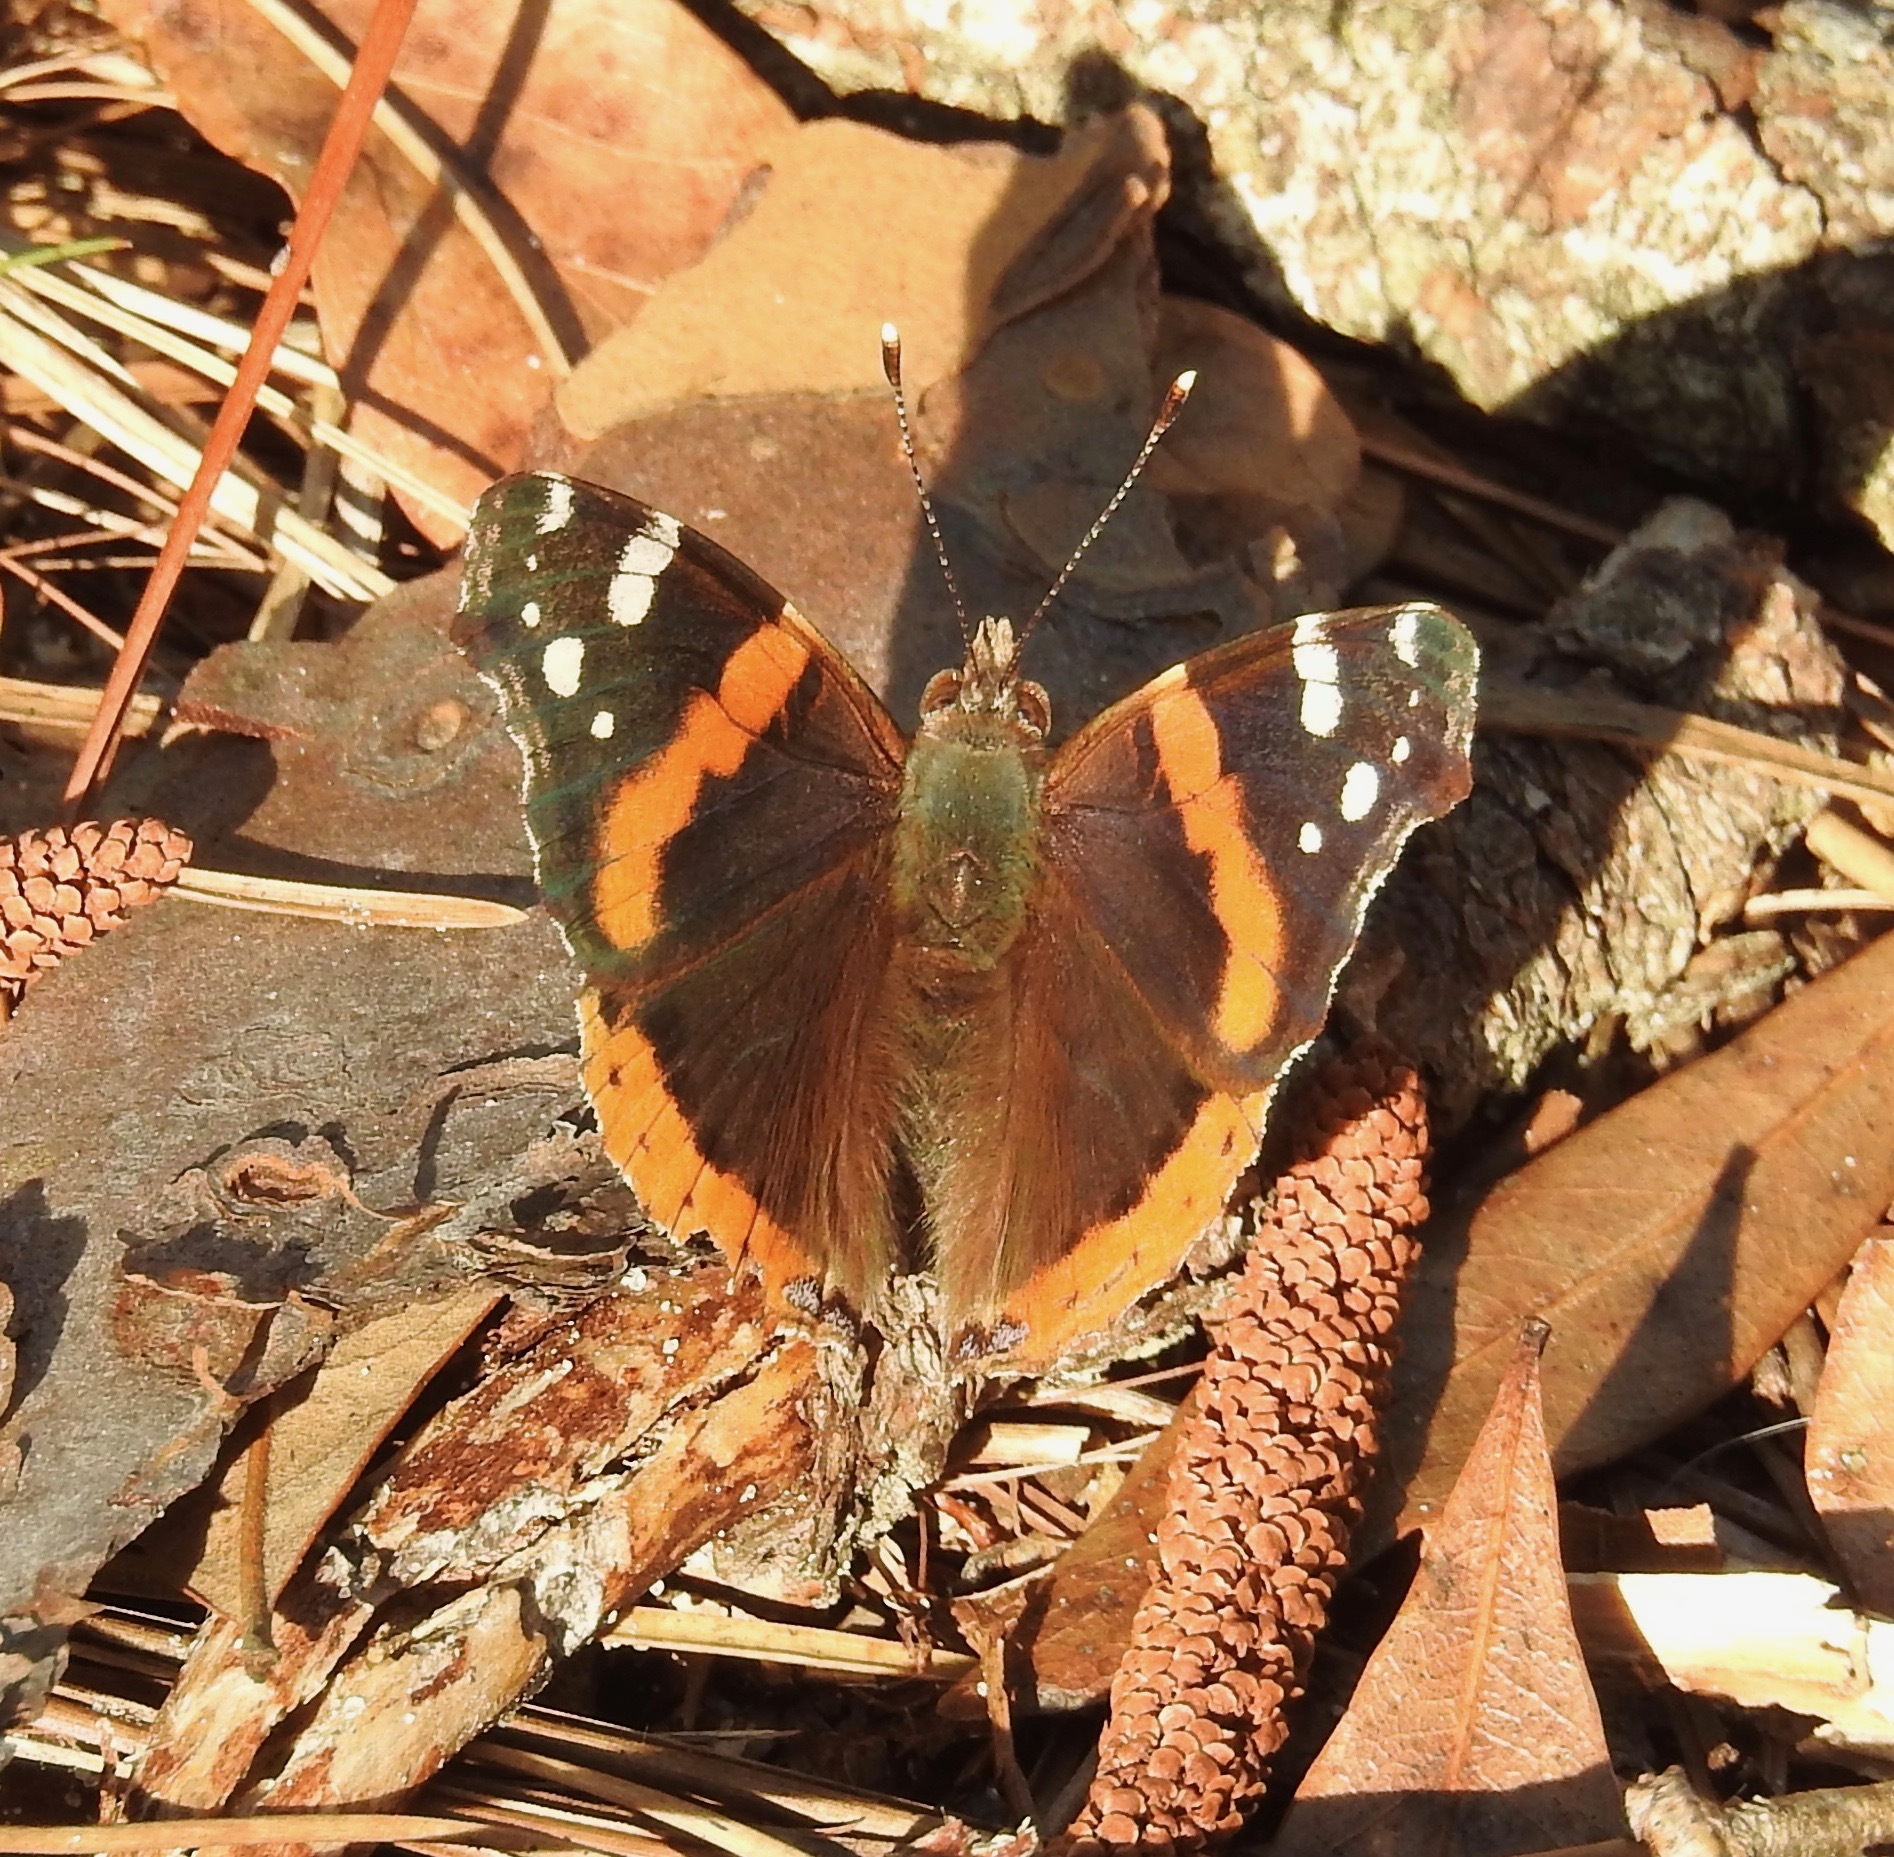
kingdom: Animalia
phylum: Arthropoda
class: Insecta
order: Lepidoptera
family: Nymphalidae
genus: Vanessa
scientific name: Vanessa atalanta
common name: Red admiral
